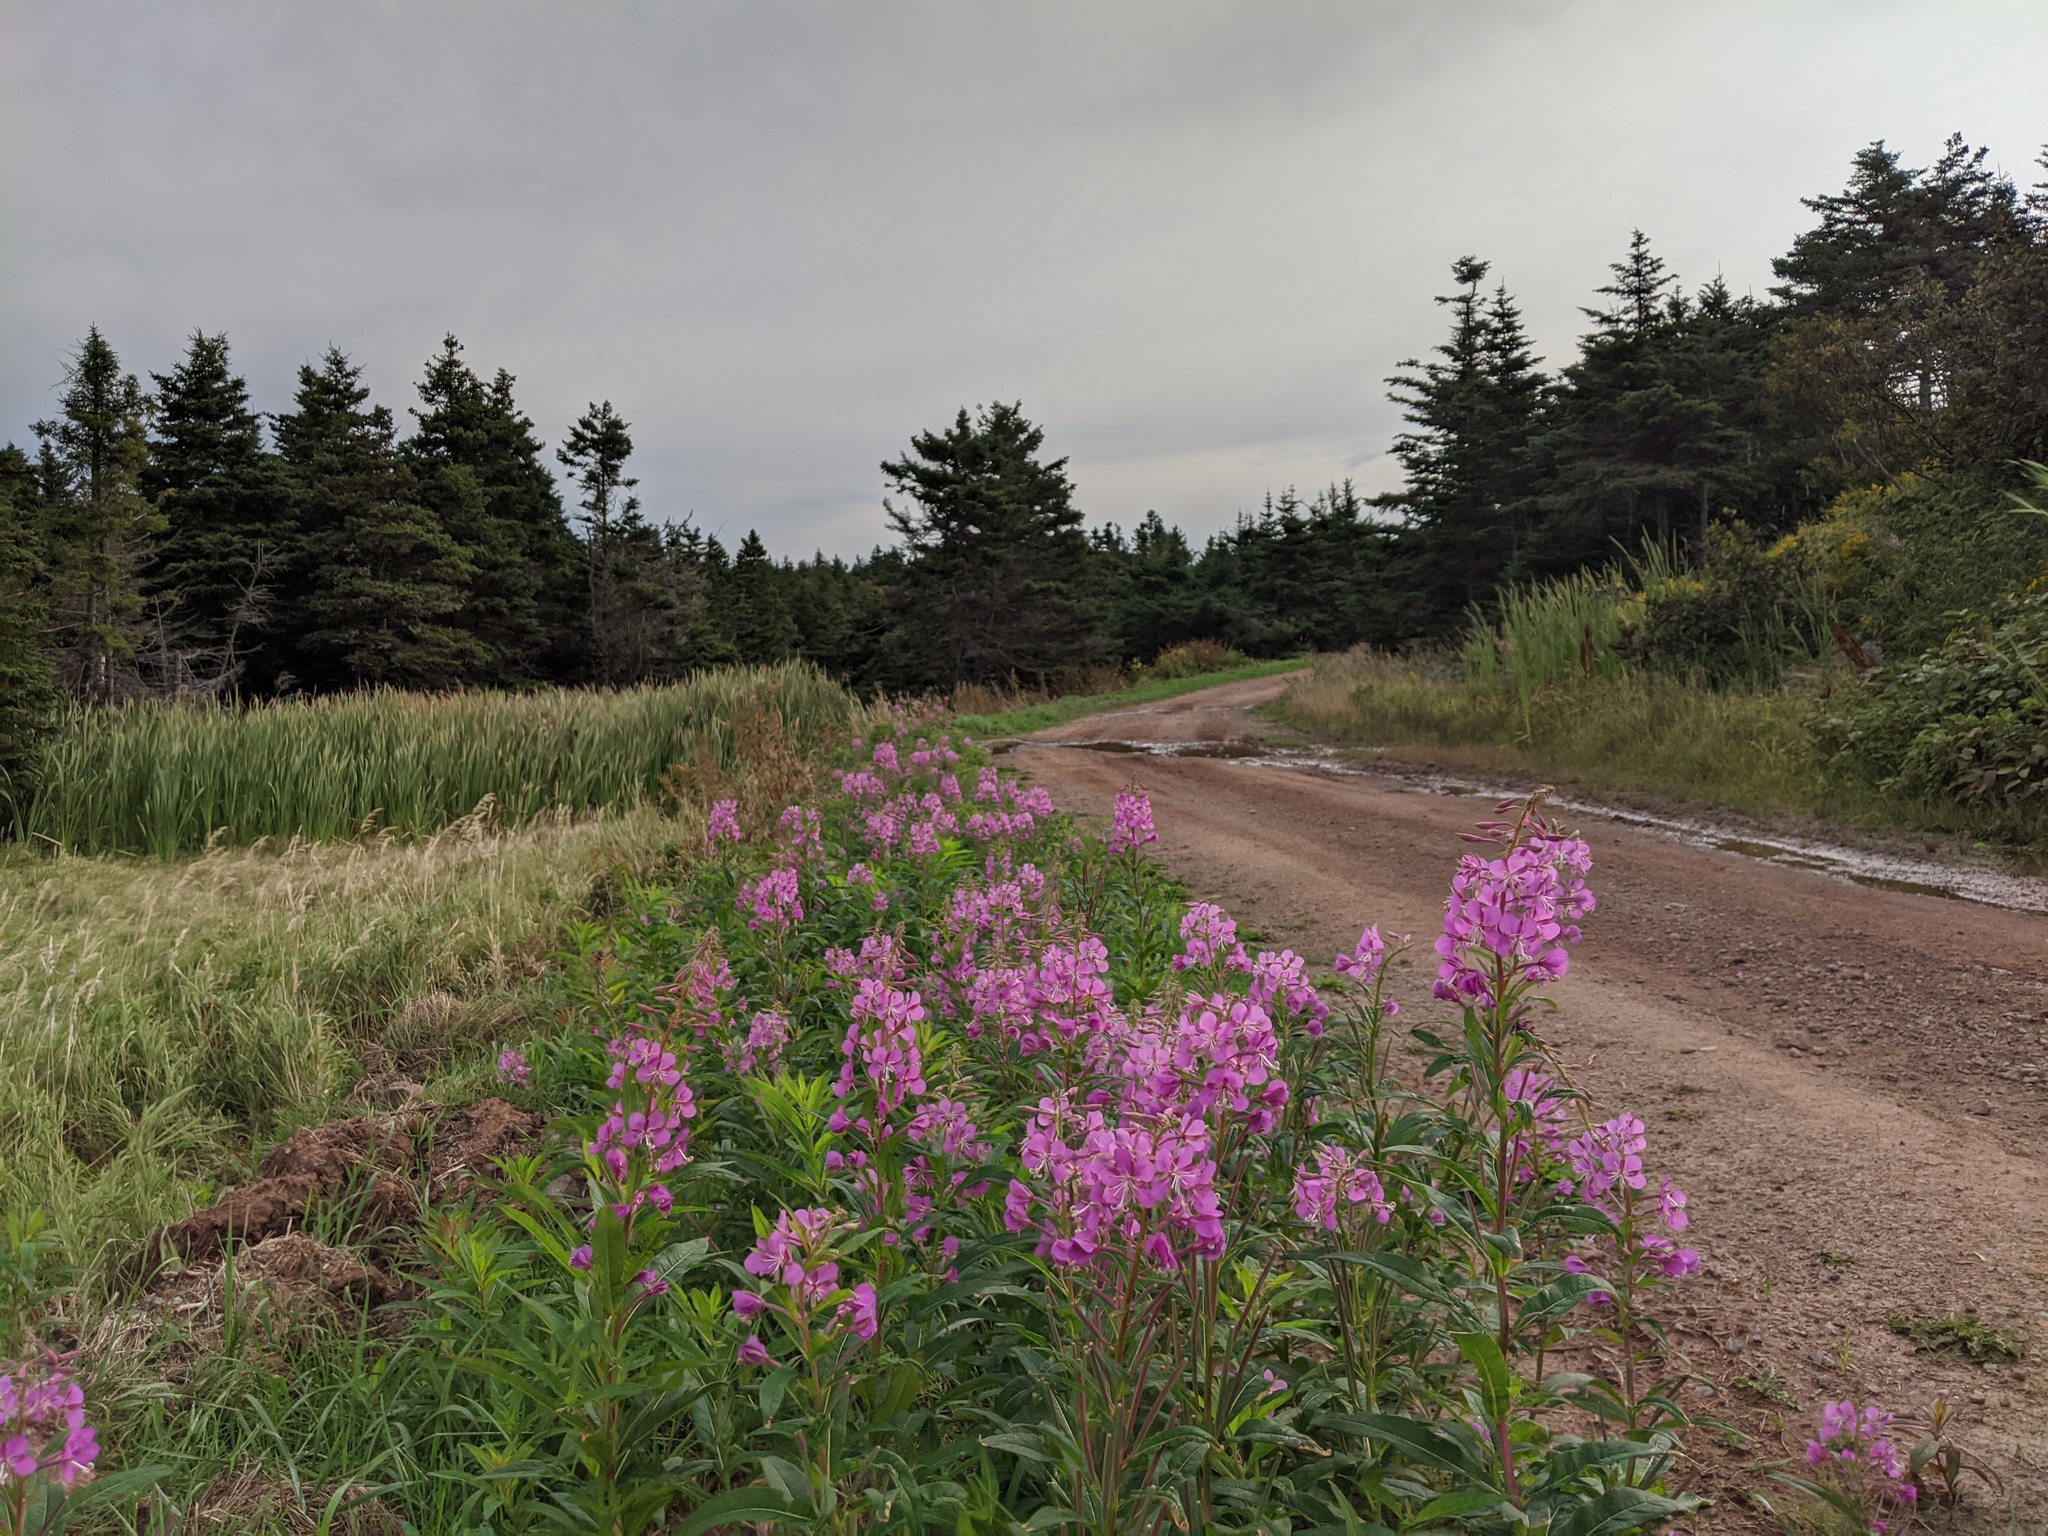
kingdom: Plantae
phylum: Tracheophyta
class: Magnoliopsida
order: Myrtales
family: Onagraceae
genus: Chamaenerion
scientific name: Chamaenerion angustifolium
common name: Fireweed
